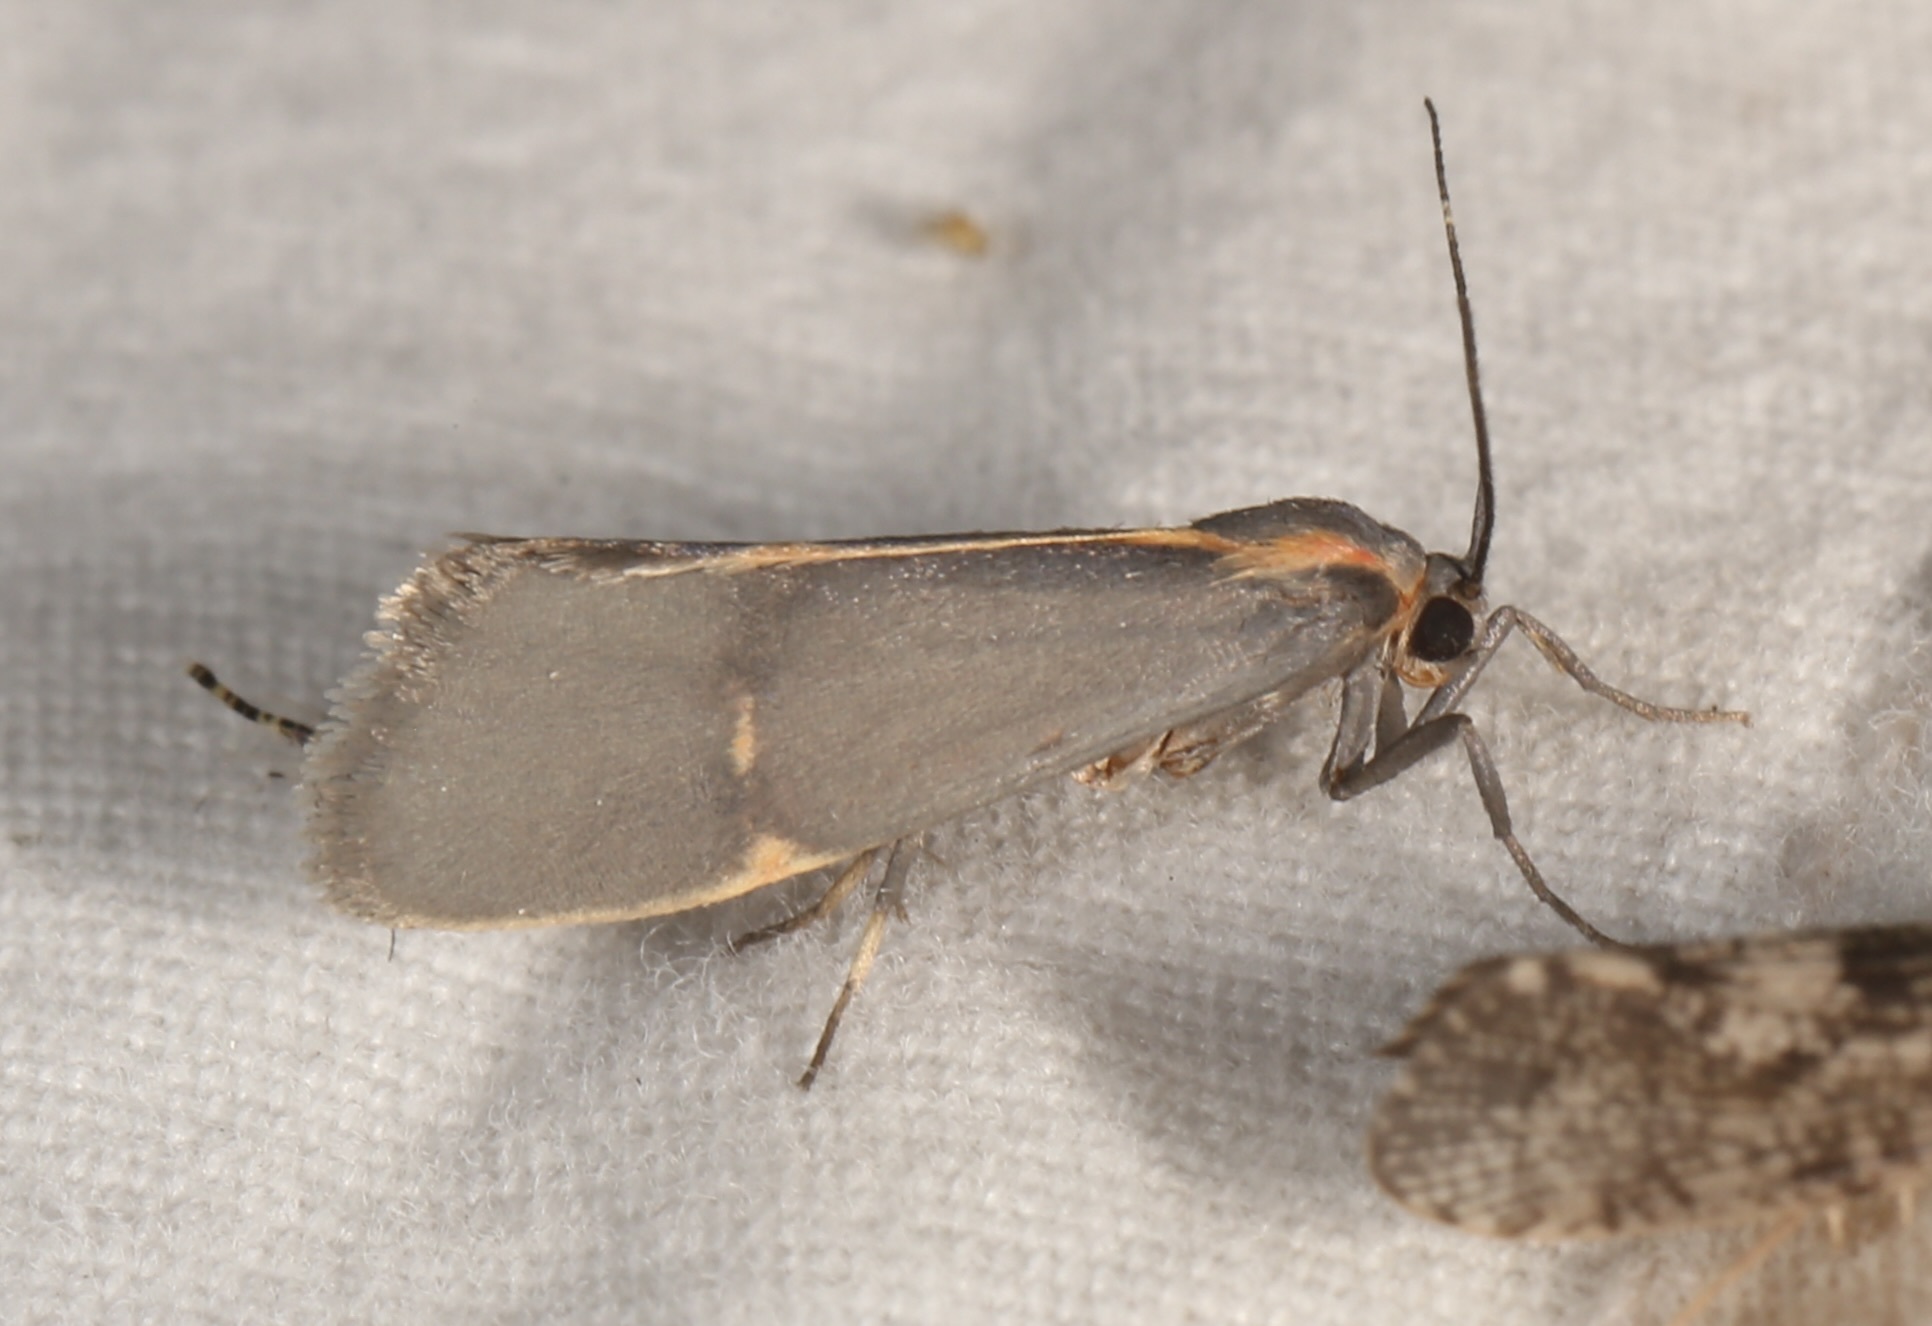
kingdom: Animalia
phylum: Arthropoda
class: Insecta
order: Lepidoptera
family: Erebidae
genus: Cisthene
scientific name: Cisthene barnesii
